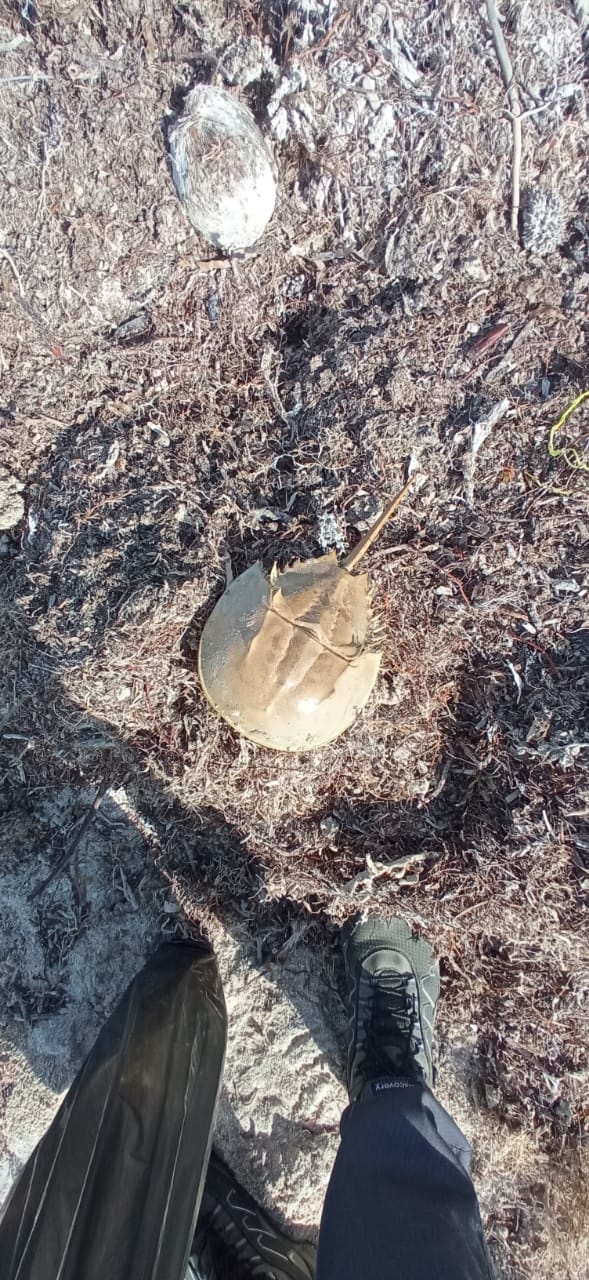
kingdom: Animalia
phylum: Arthropoda
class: Merostomata
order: Xiphosurida
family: Limulidae
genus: Limulus
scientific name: Limulus polyphemus
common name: Horseshoe crab
